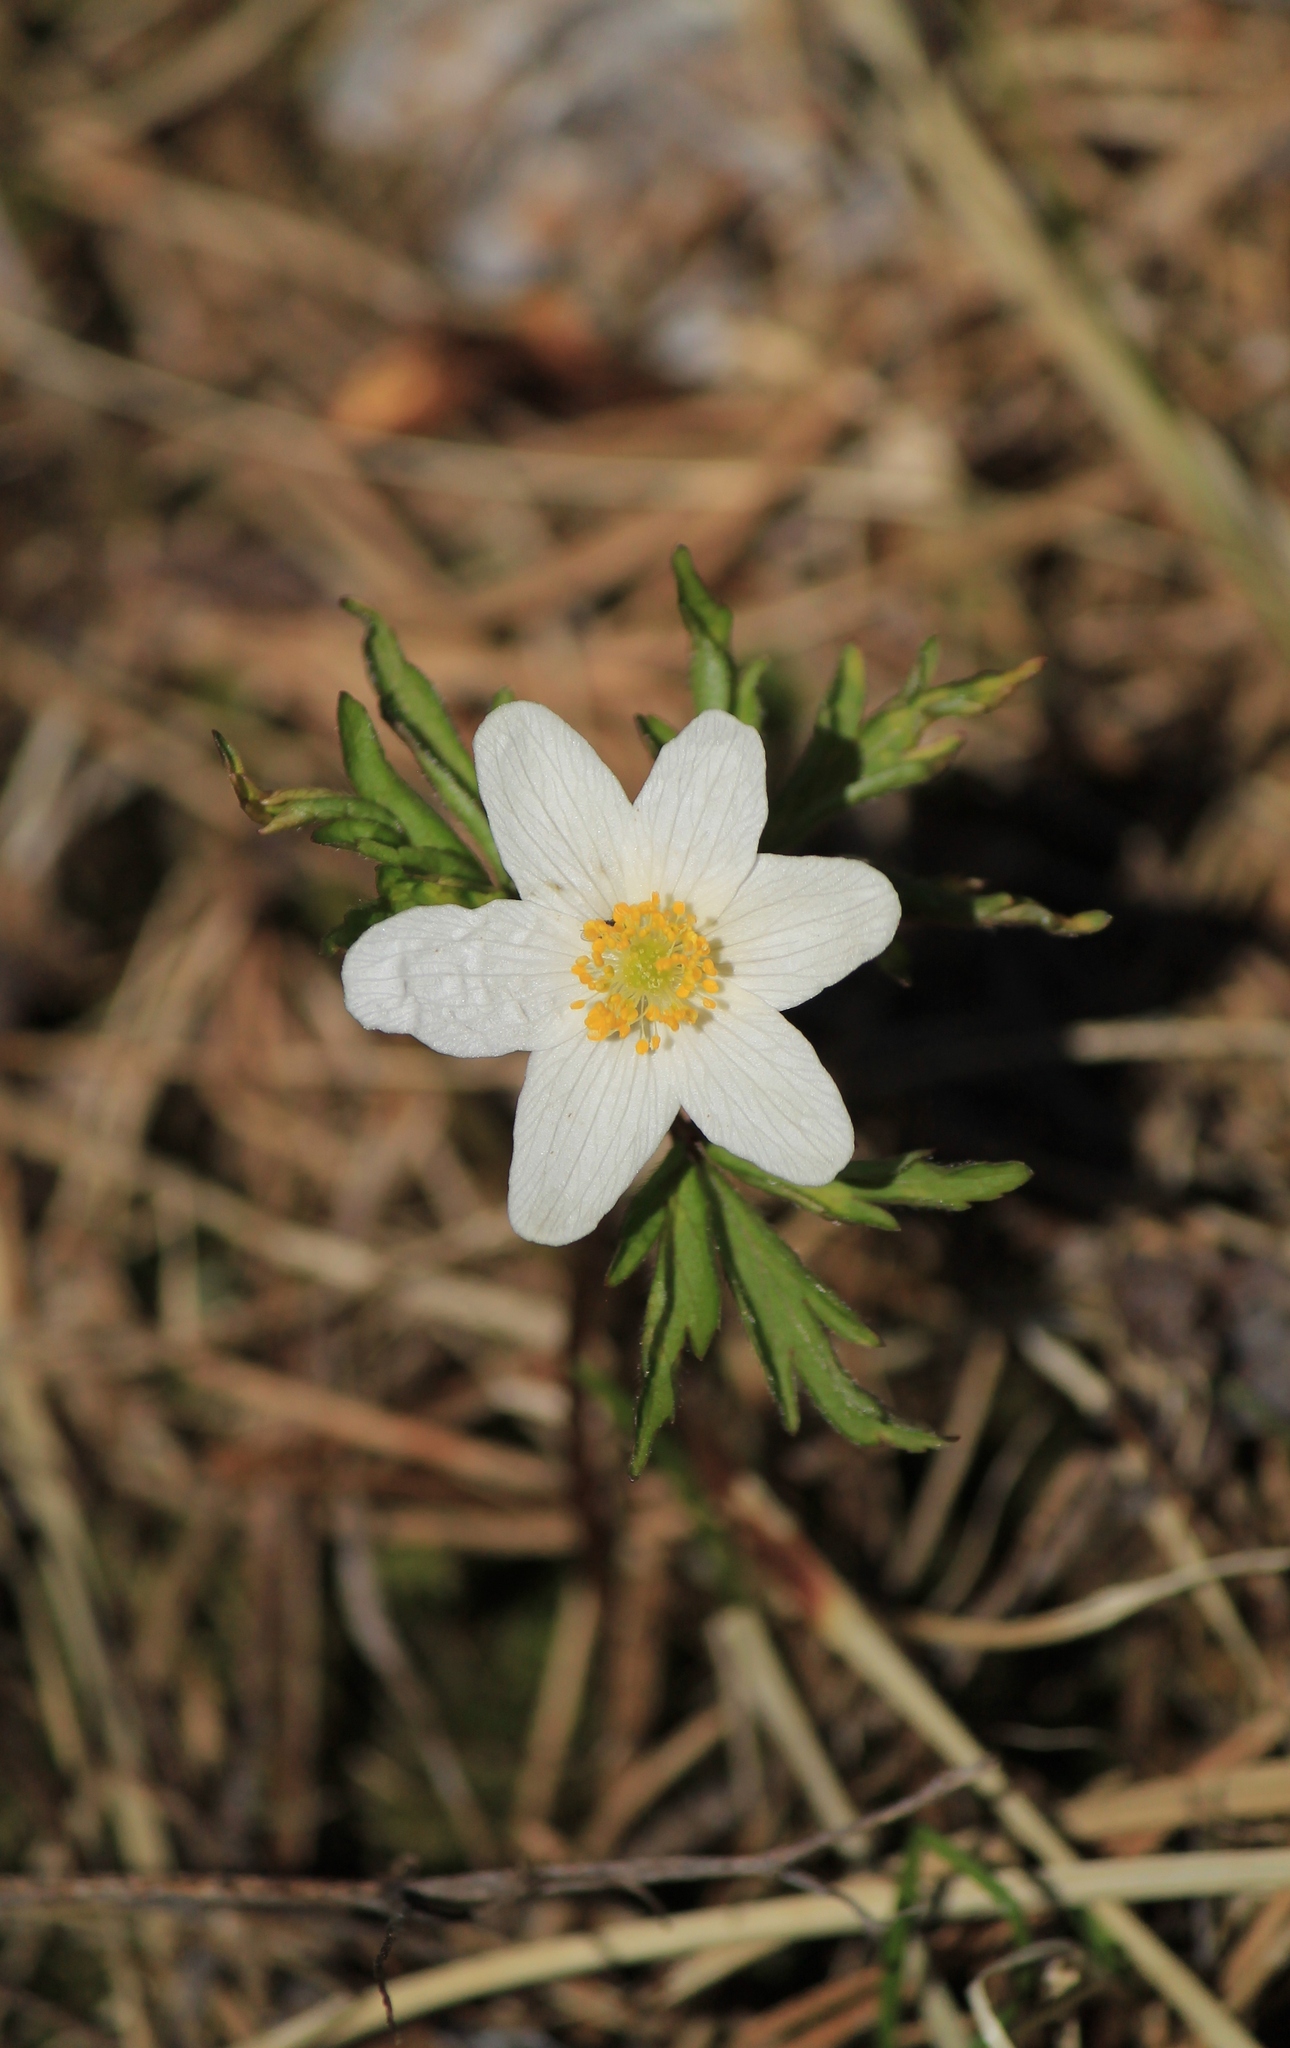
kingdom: Plantae
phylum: Tracheophyta
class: Magnoliopsida
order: Ranunculales
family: Ranunculaceae
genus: Anemone
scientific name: Anemone nemorosa
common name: Wood anemone
